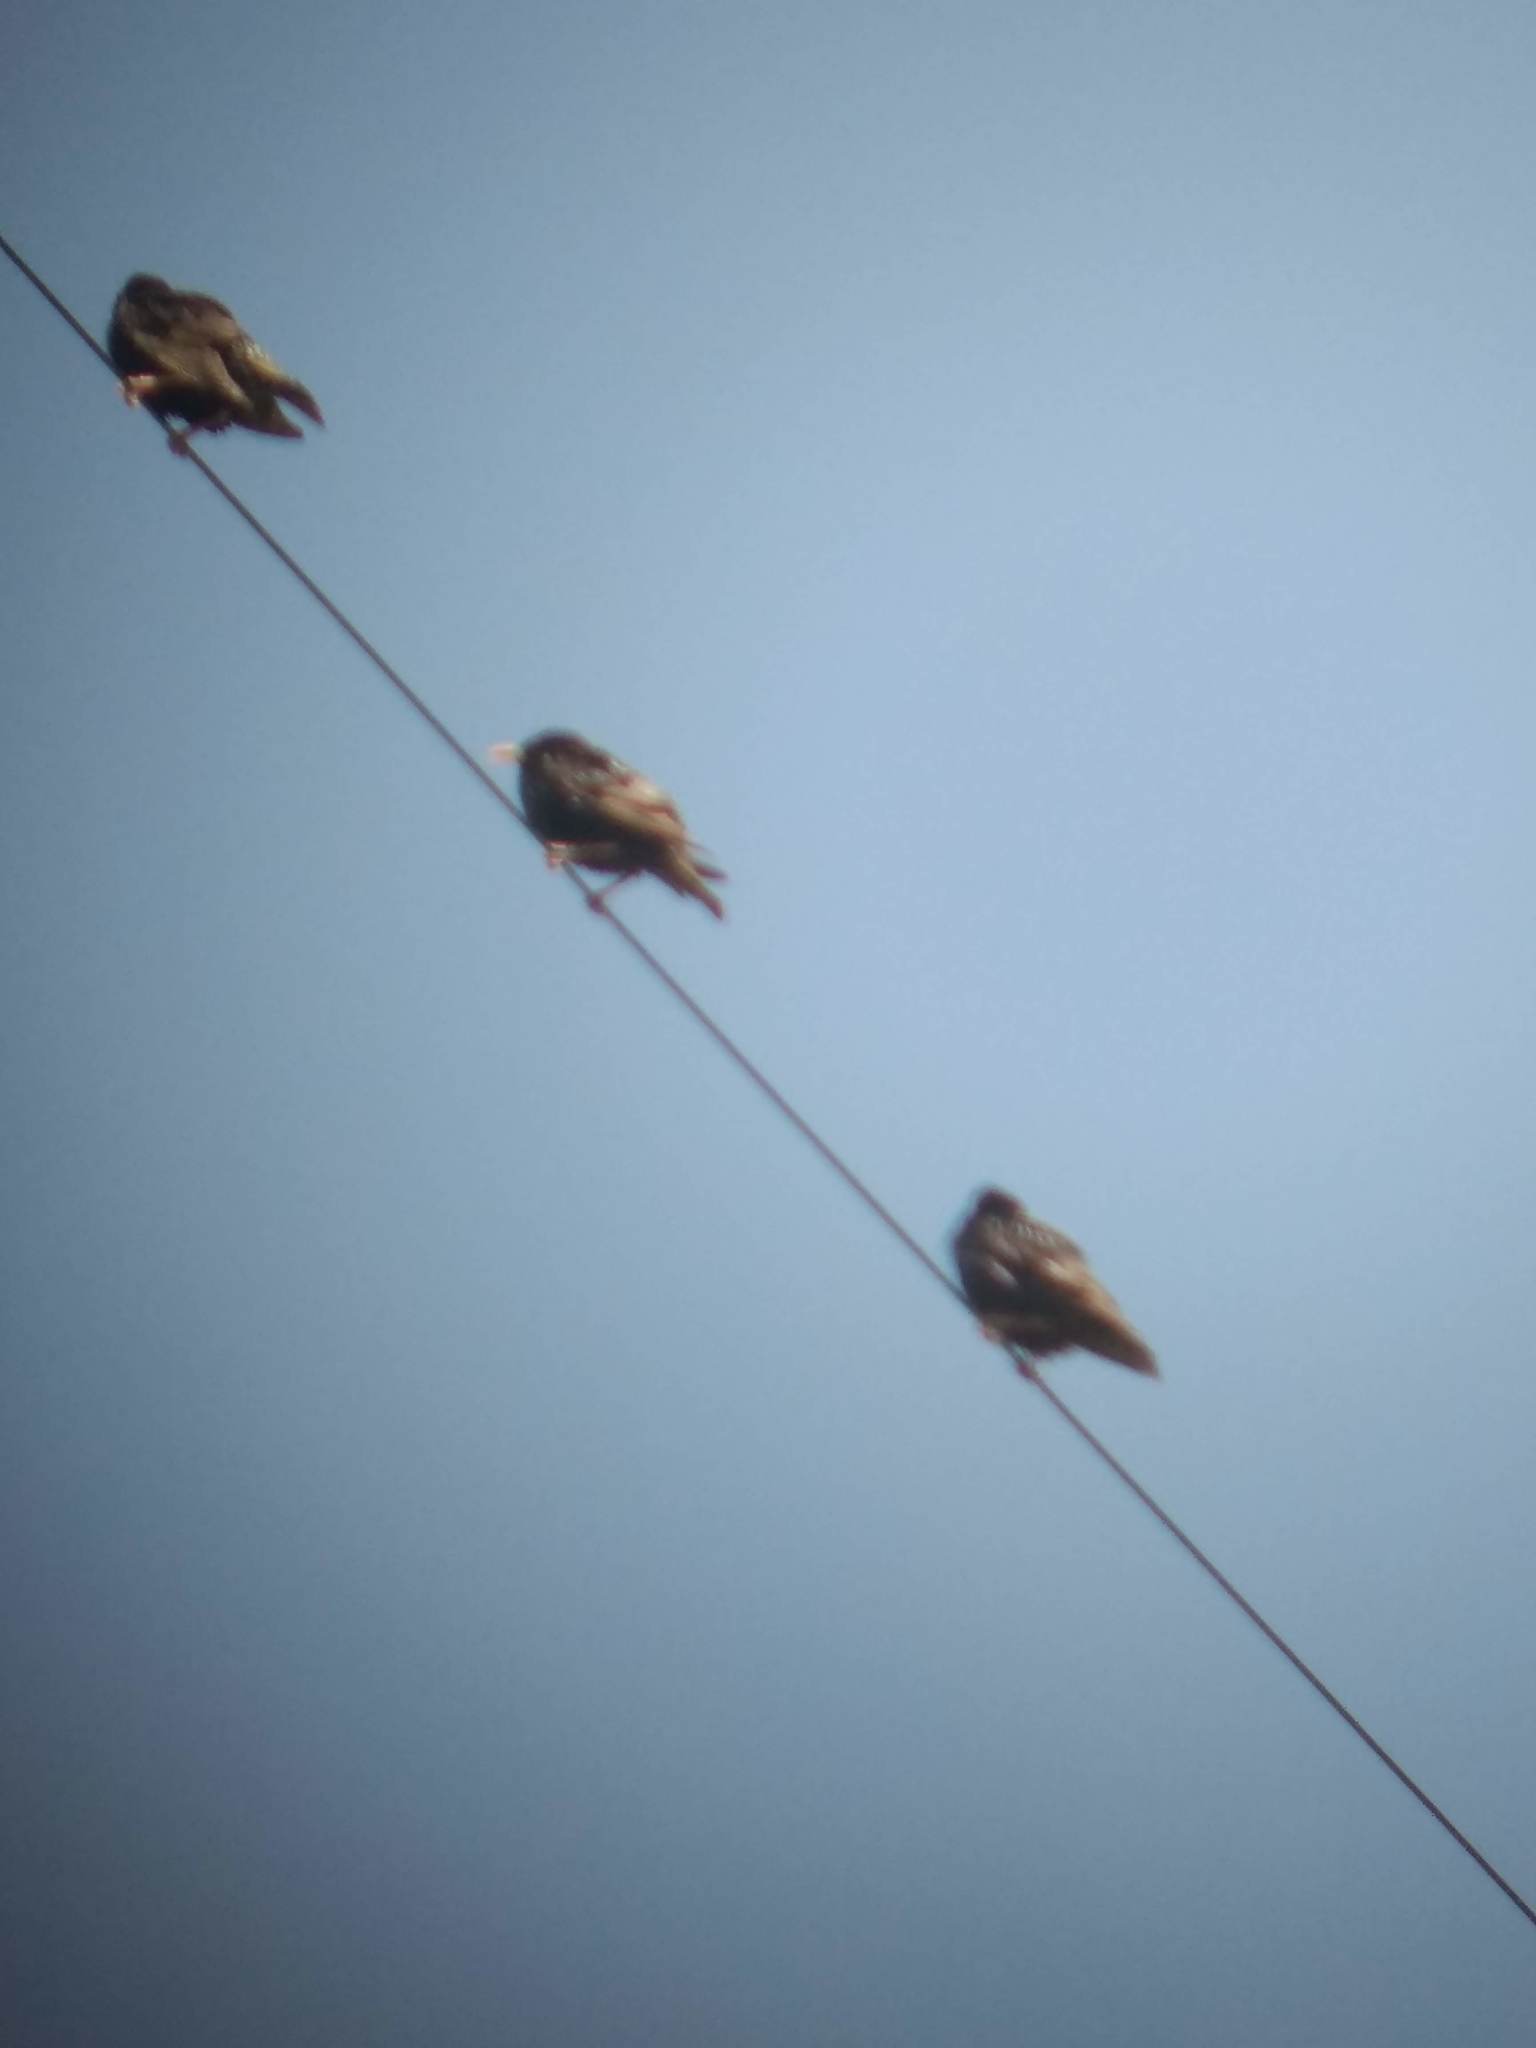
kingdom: Animalia
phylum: Chordata
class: Aves
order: Passeriformes
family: Sturnidae
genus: Sturnus
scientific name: Sturnus vulgaris
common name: Common starling
